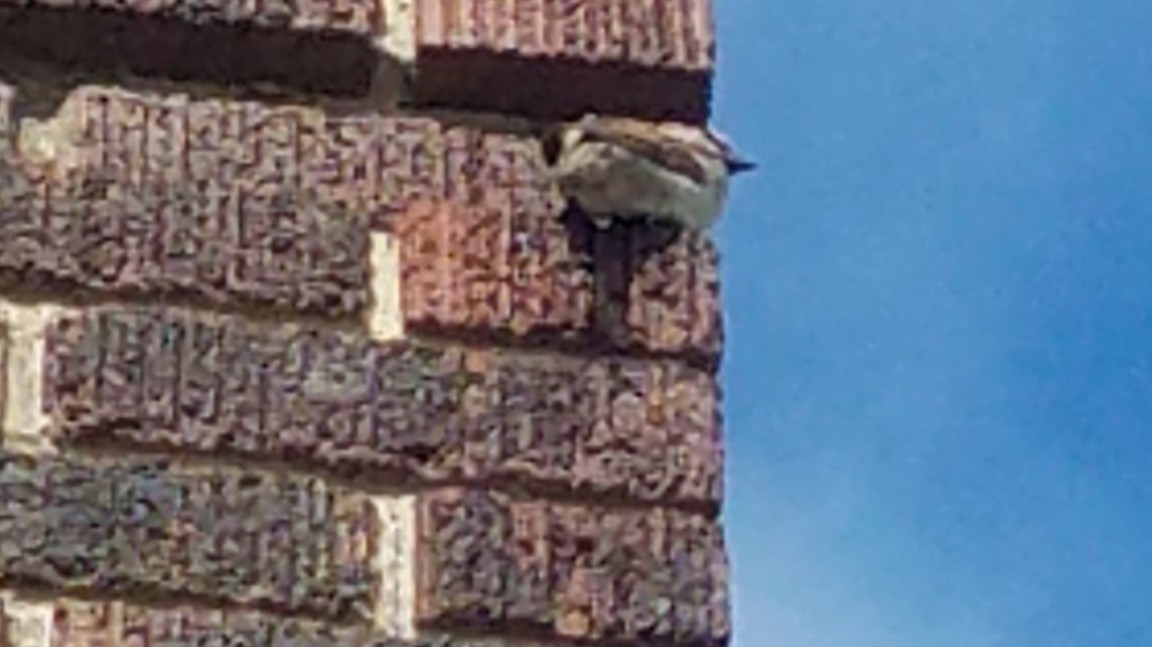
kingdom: Animalia
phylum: Chordata
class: Aves
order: Passeriformes
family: Passeridae
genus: Passer
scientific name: Passer domesticus
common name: House sparrow
